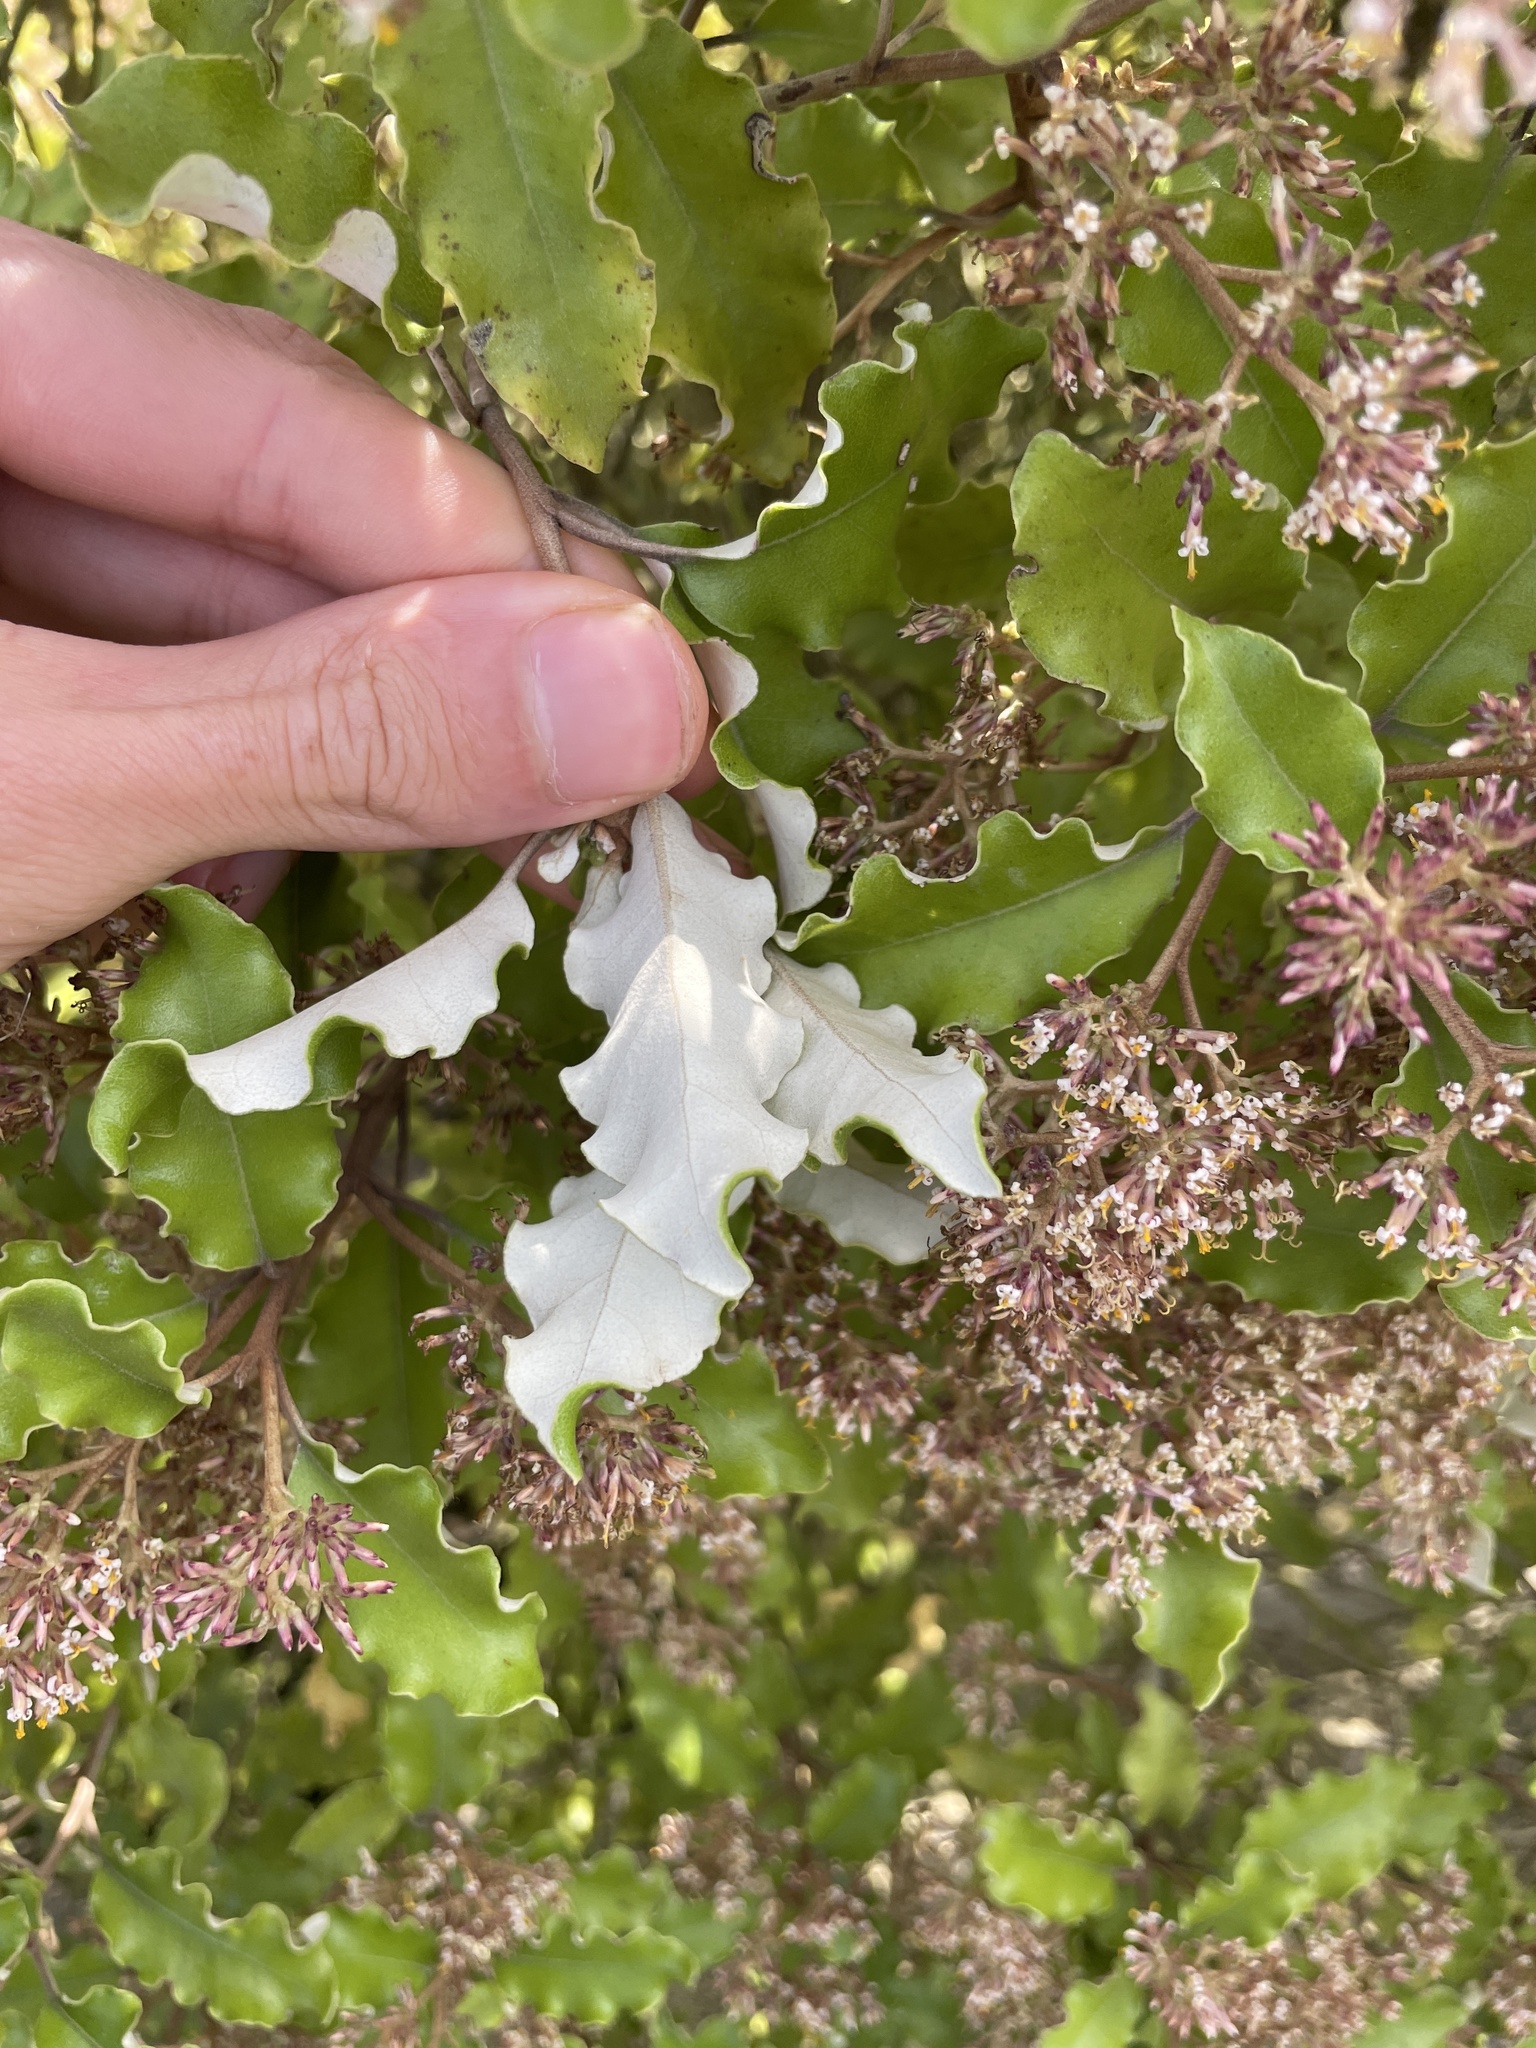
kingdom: Plantae
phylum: Tracheophyta
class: Magnoliopsida
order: Asterales
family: Asteraceae
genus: Olearia
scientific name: Olearia paniculata
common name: Akiraho
